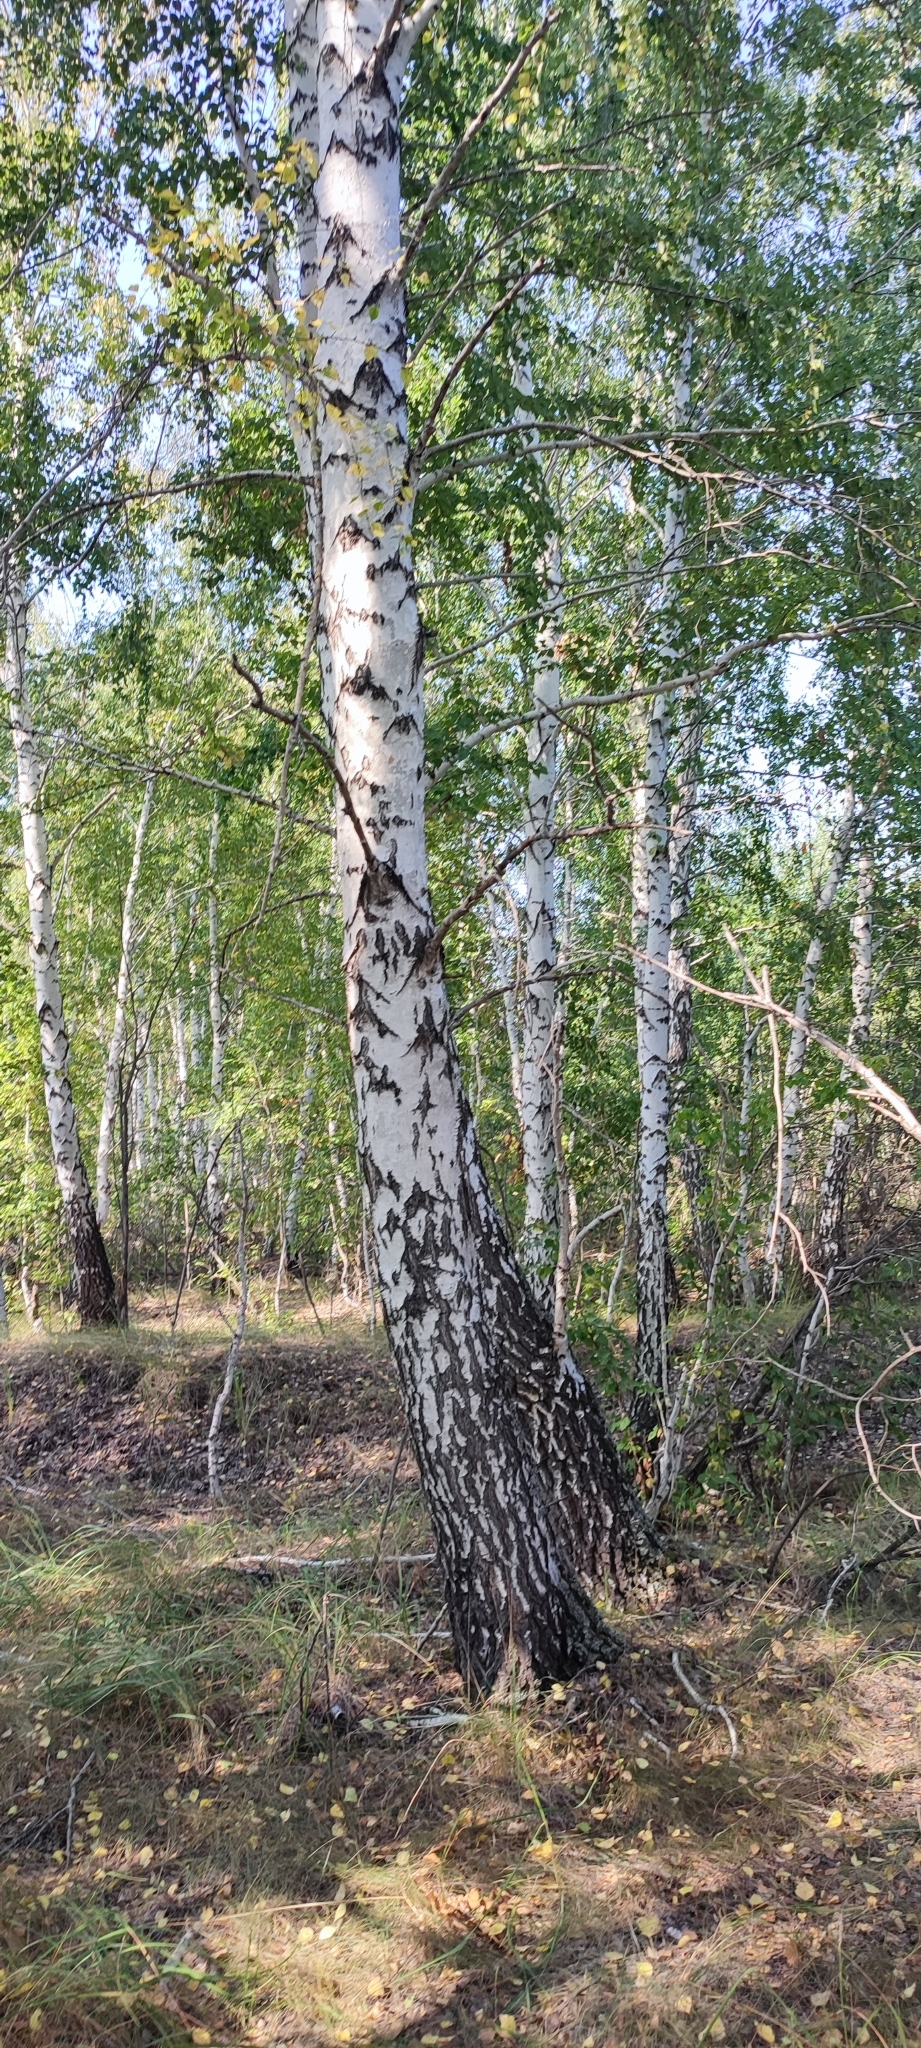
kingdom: Plantae
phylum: Tracheophyta
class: Magnoliopsida
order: Fagales
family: Betulaceae
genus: Betula
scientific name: Betula pendula
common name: Silver birch
